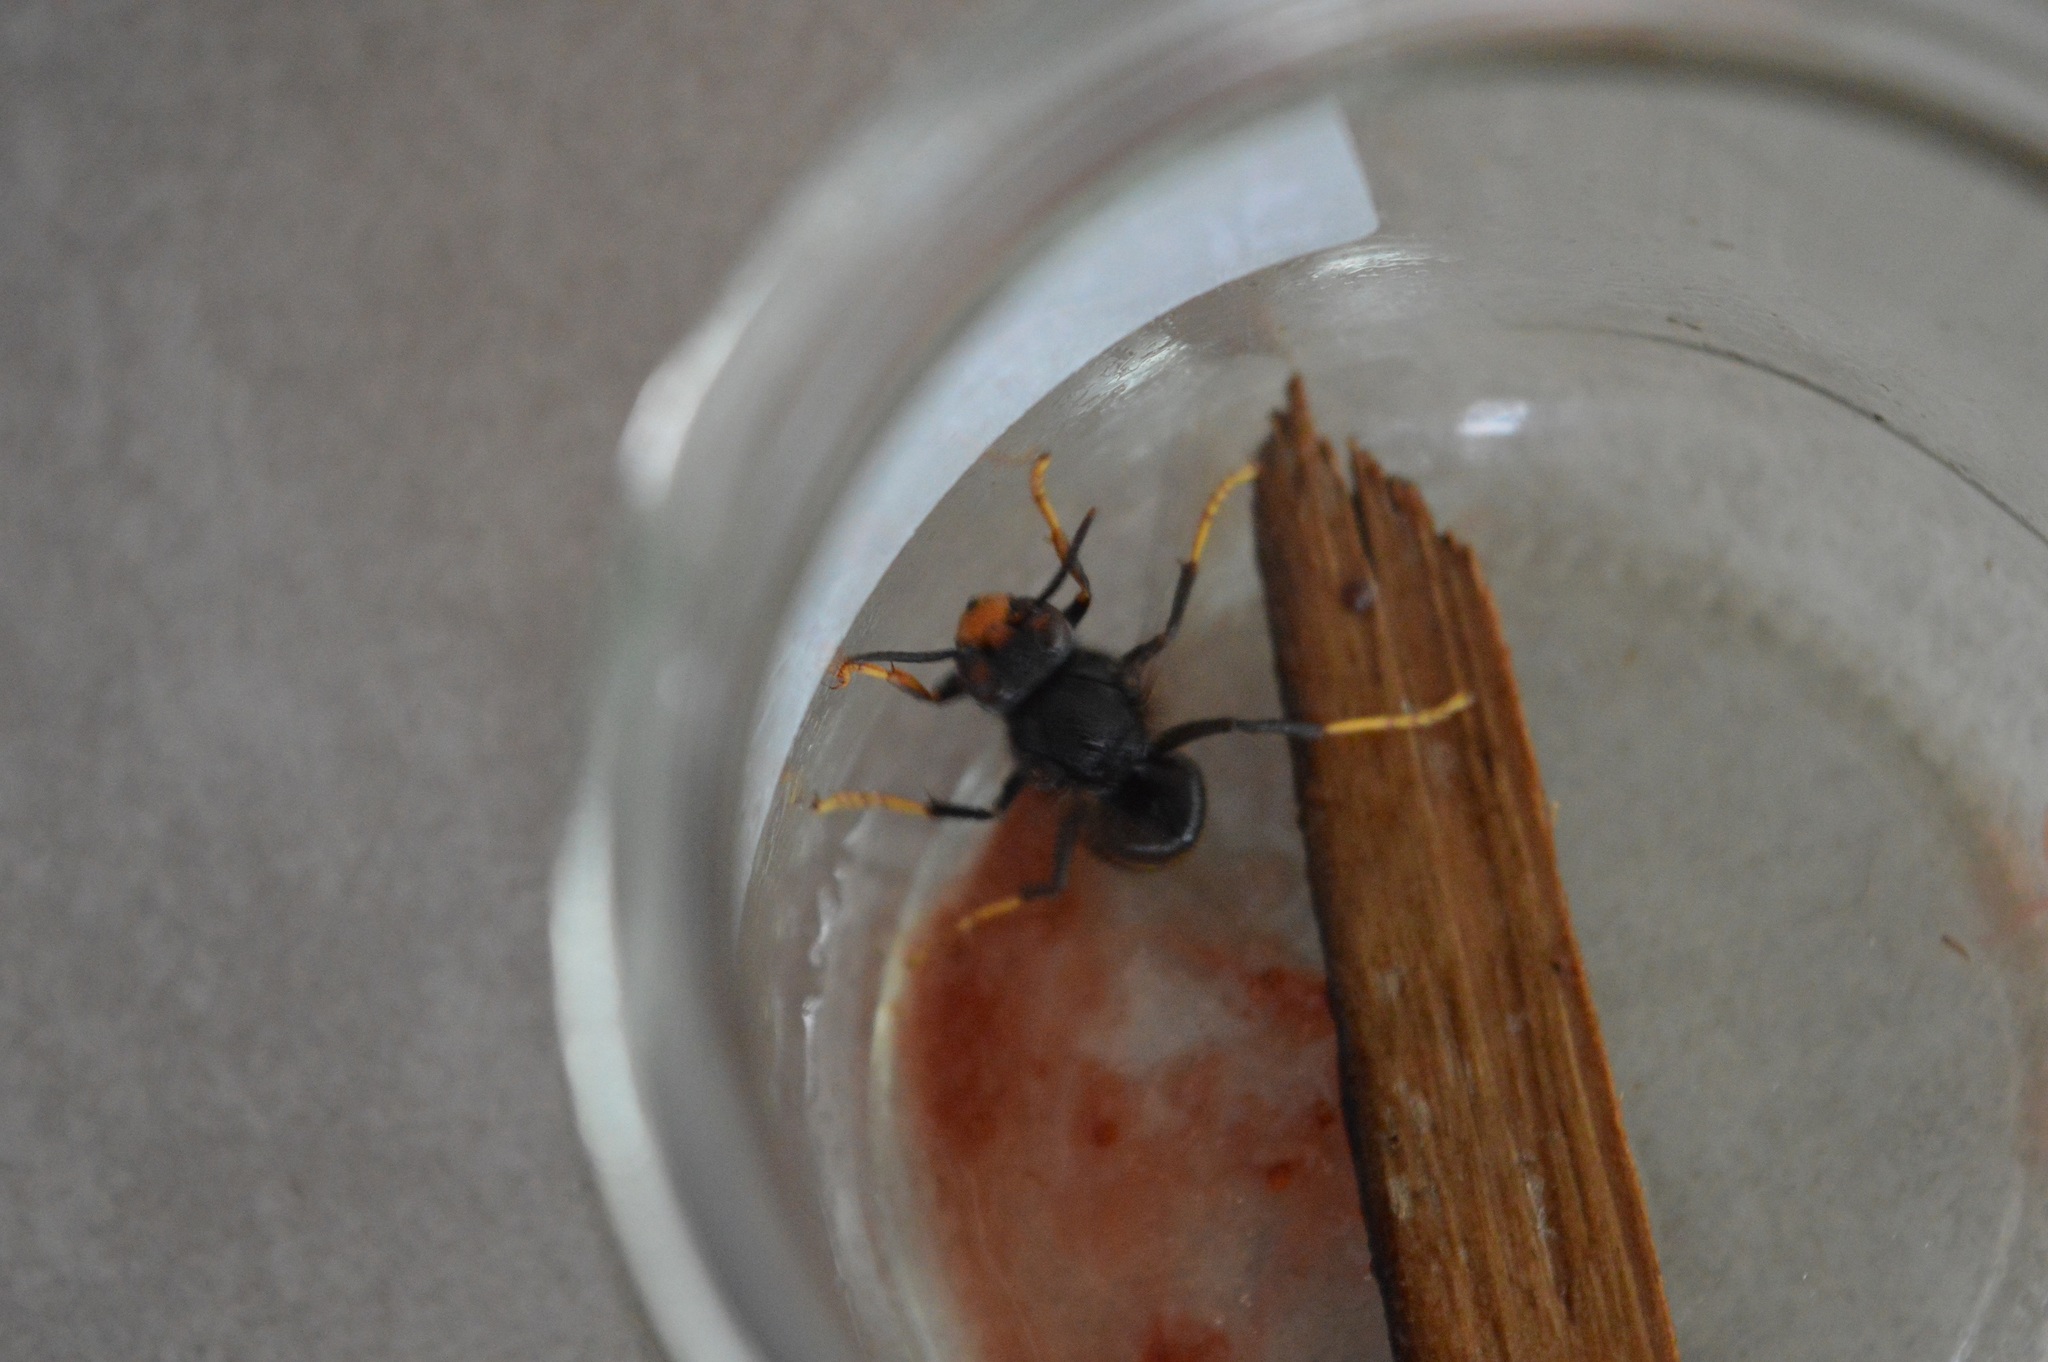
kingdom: Animalia
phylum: Arthropoda
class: Insecta
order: Hymenoptera
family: Vespidae
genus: Vespa
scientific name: Vespa velutina
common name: Asian hornet
